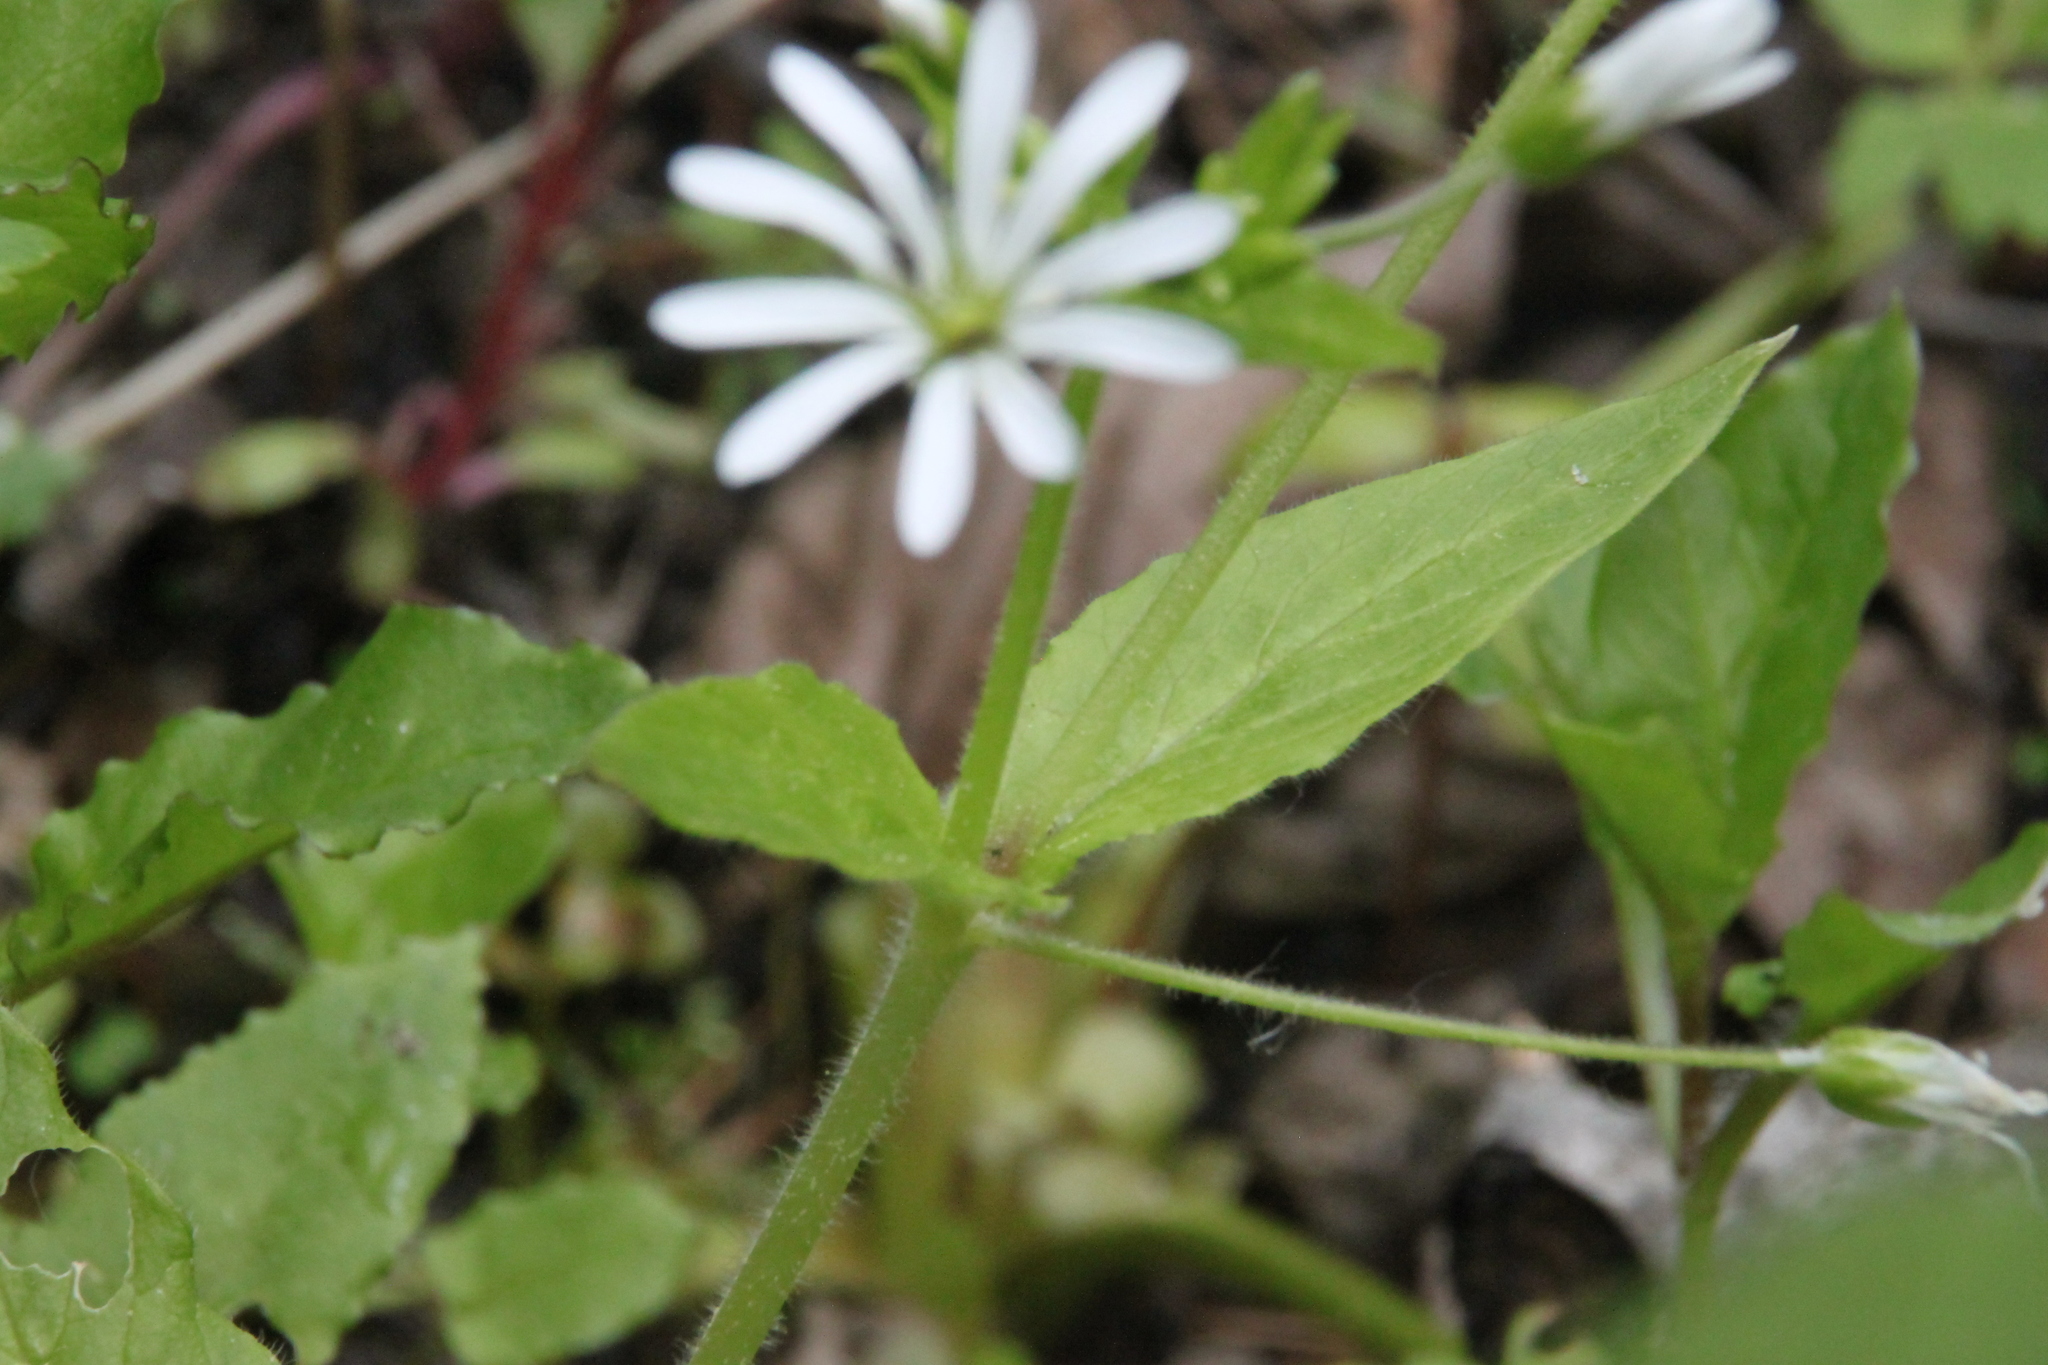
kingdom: Plantae
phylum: Tracheophyta
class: Magnoliopsida
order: Caryophyllales
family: Caryophyllaceae
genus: Stellaria
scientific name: Stellaria nemorum
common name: Wood stitchwort
